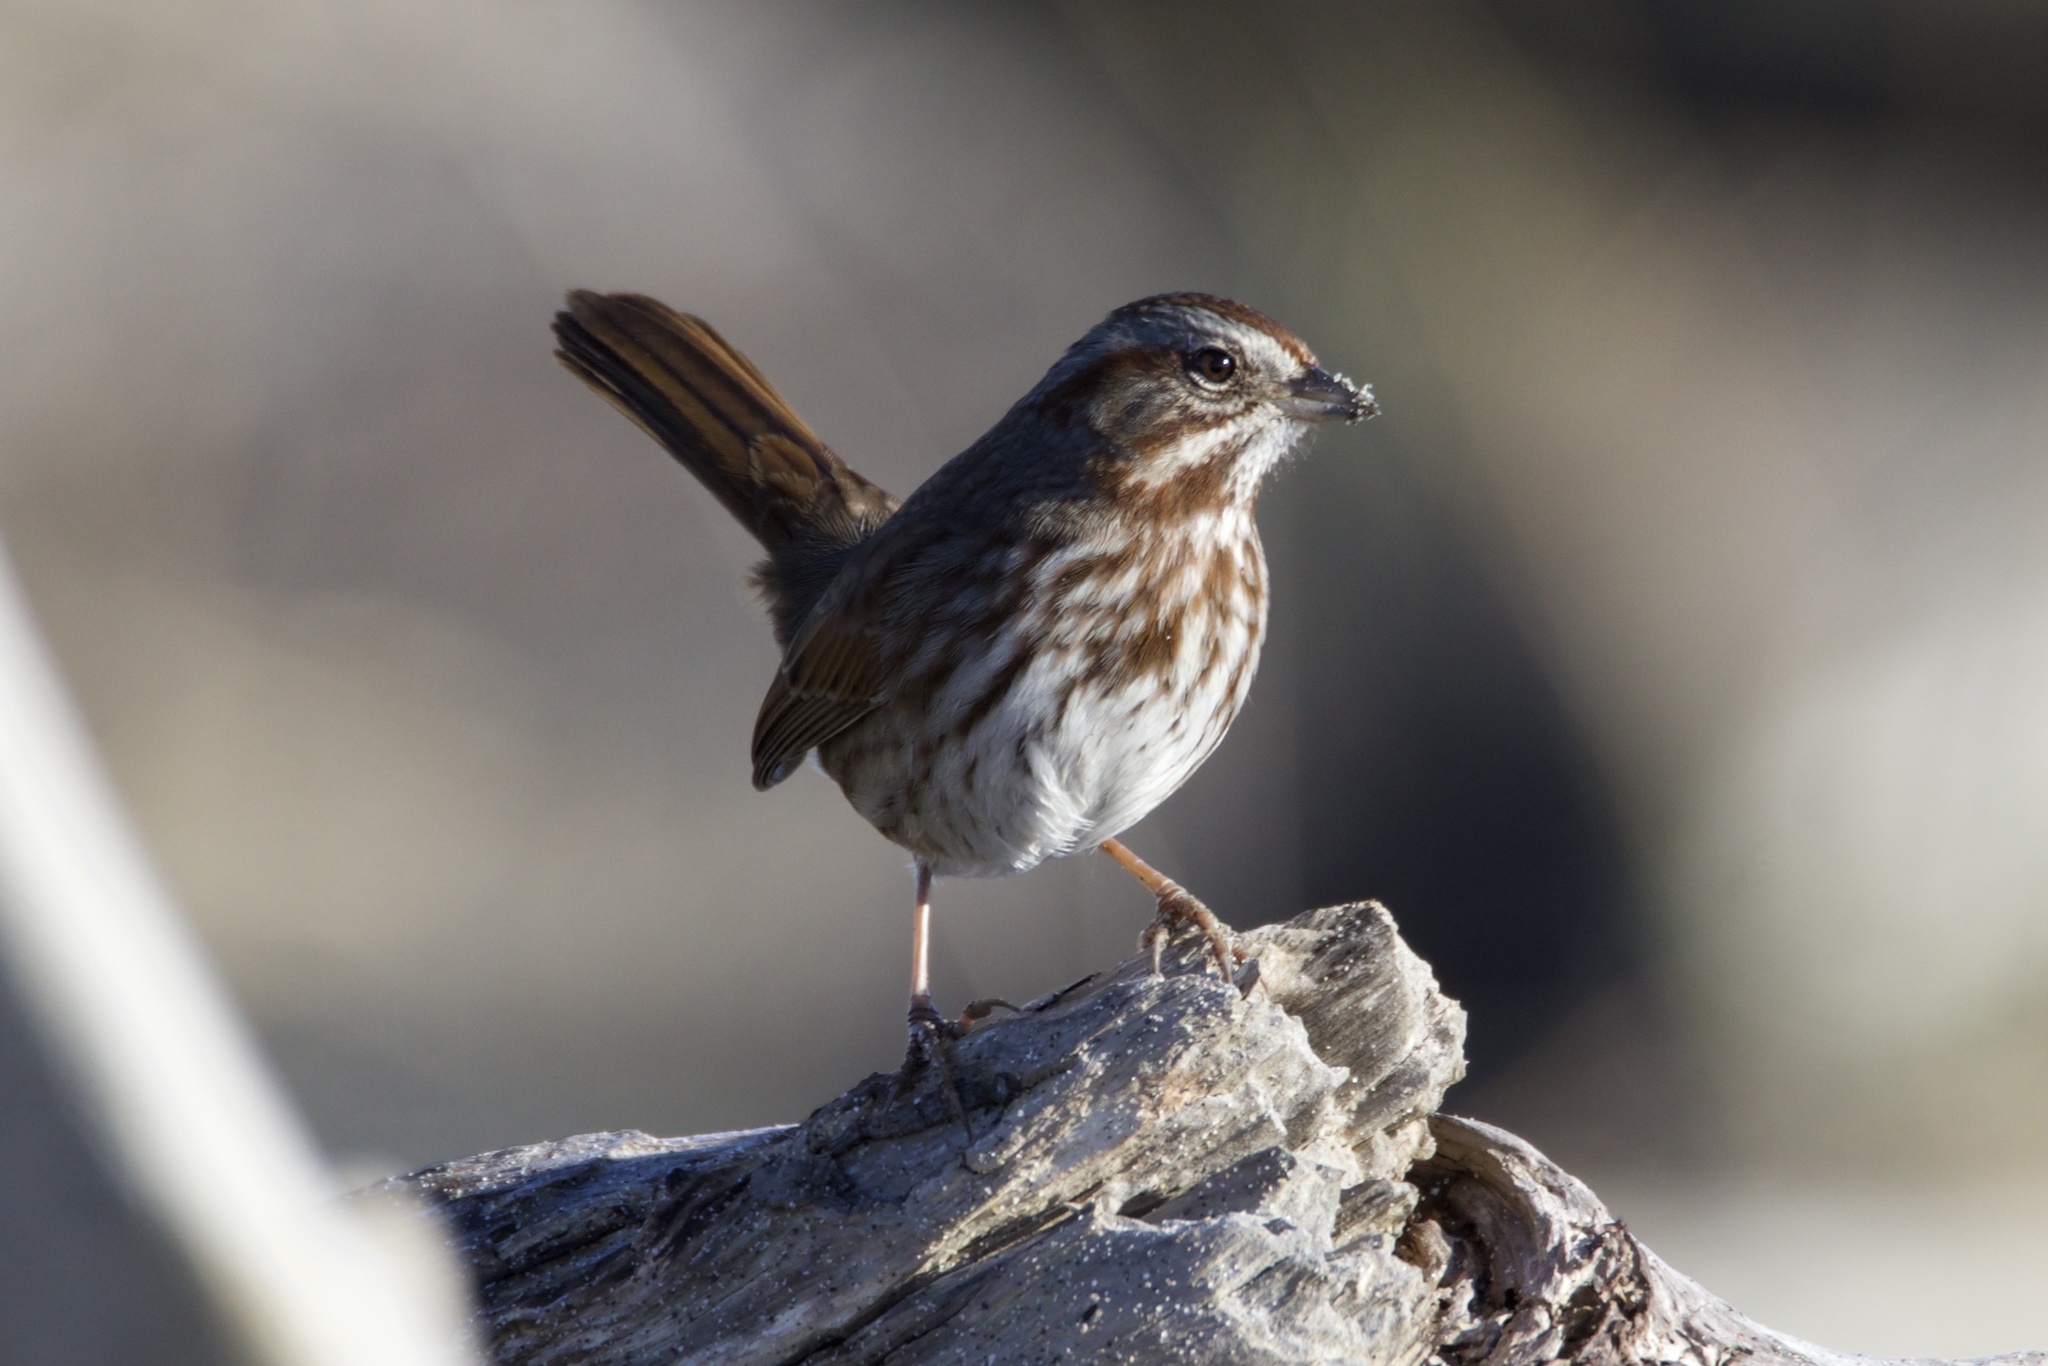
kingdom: Animalia
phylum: Chordata
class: Aves
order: Passeriformes
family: Passerellidae
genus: Melospiza
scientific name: Melospiza melodia
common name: Song sparrow
